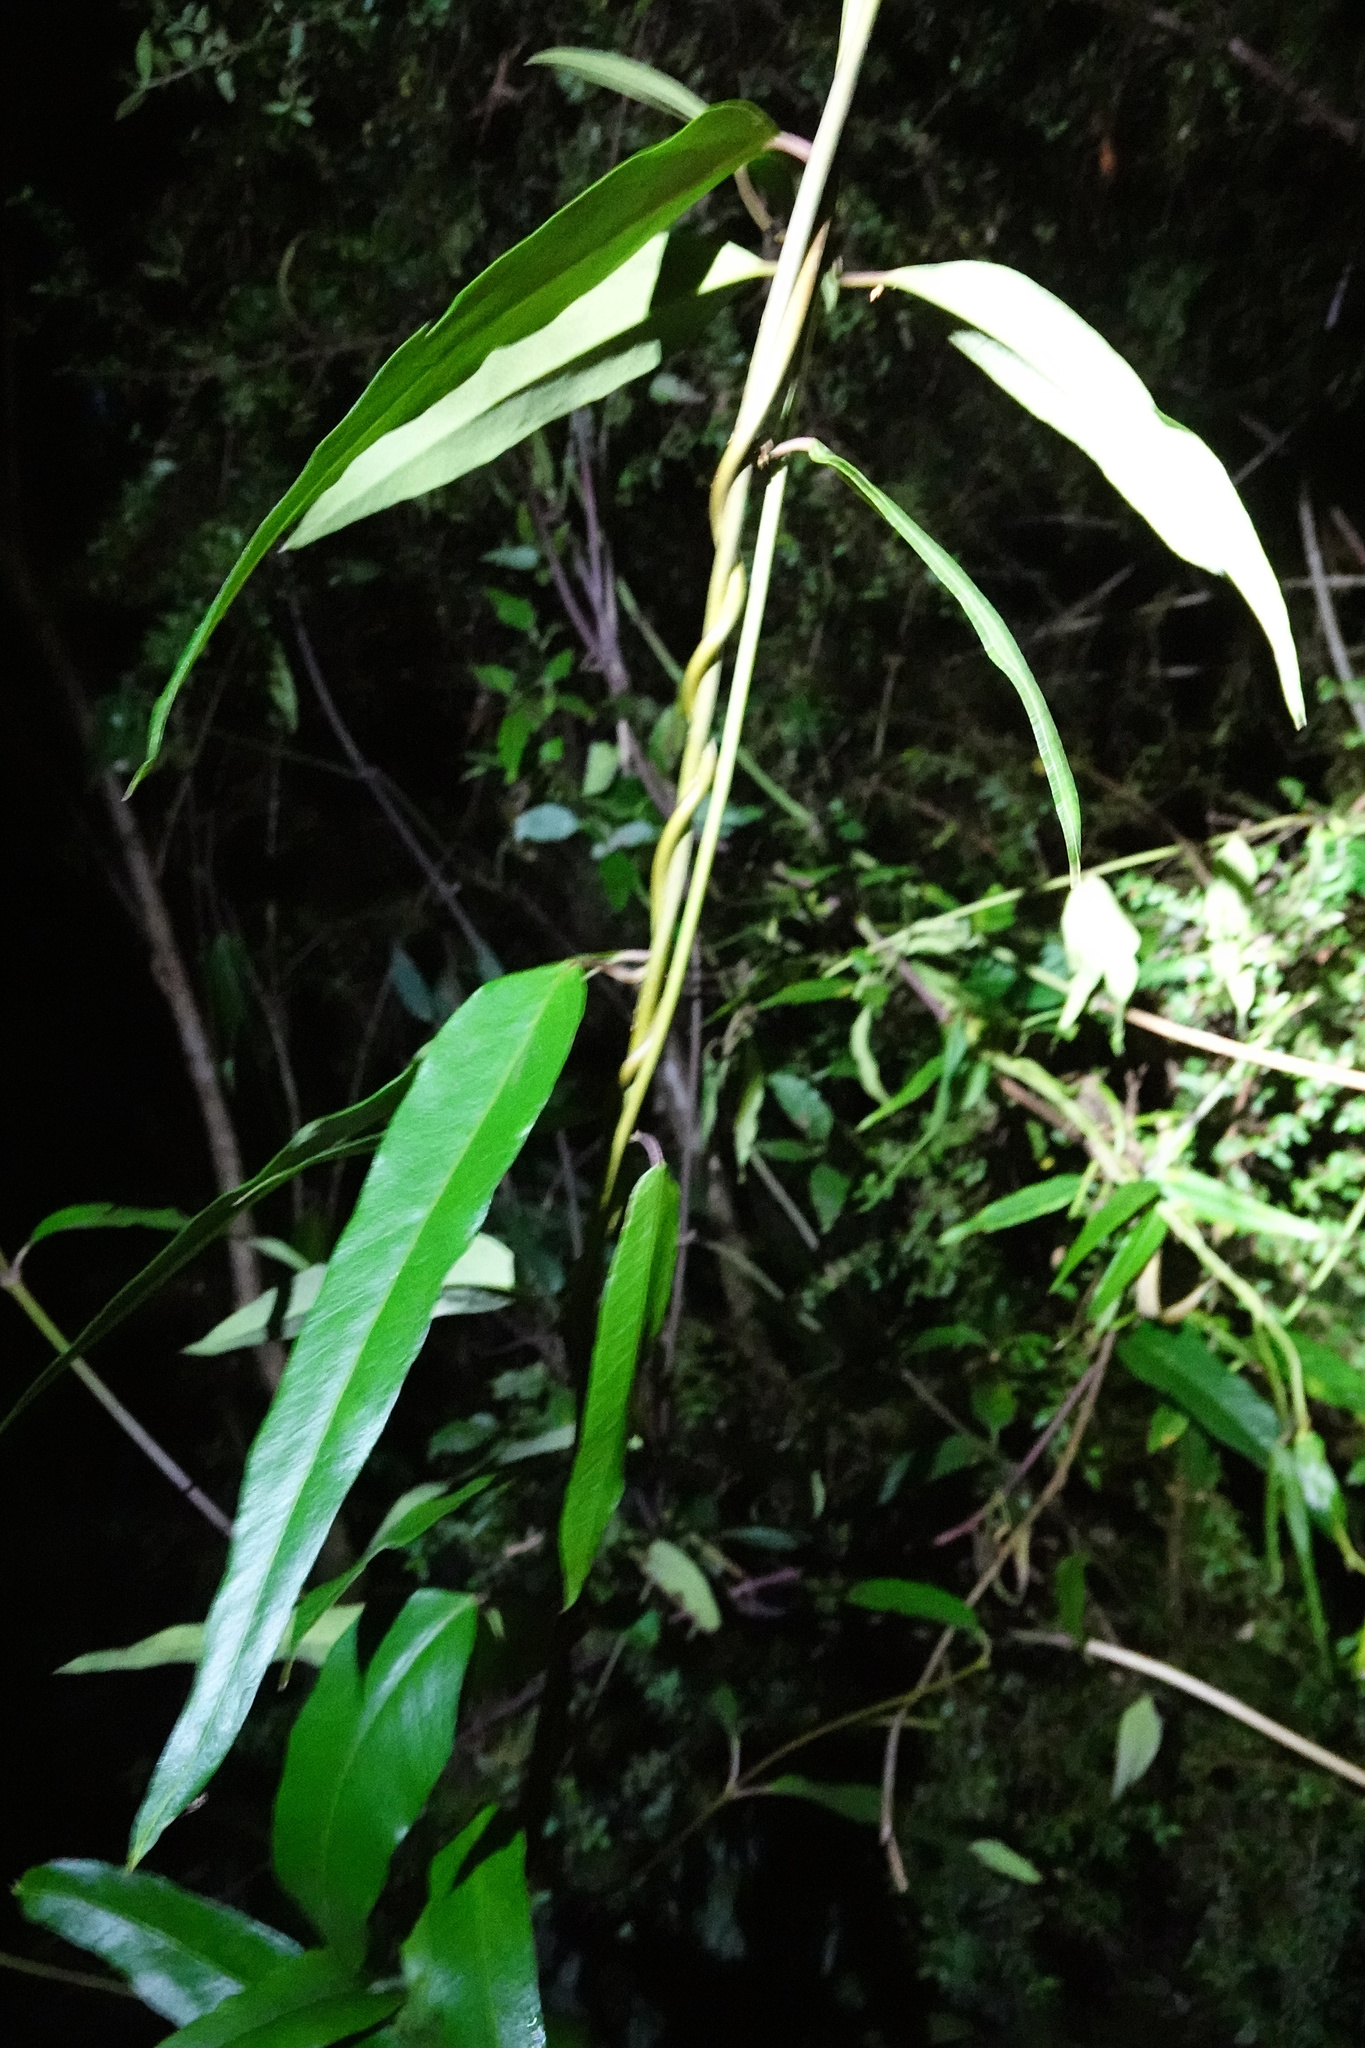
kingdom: Plantae
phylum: Tracheophyta
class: Magnoliopsida
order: Gentianales
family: Apocynaceae
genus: Parsonsia
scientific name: Parsonsia brownii
